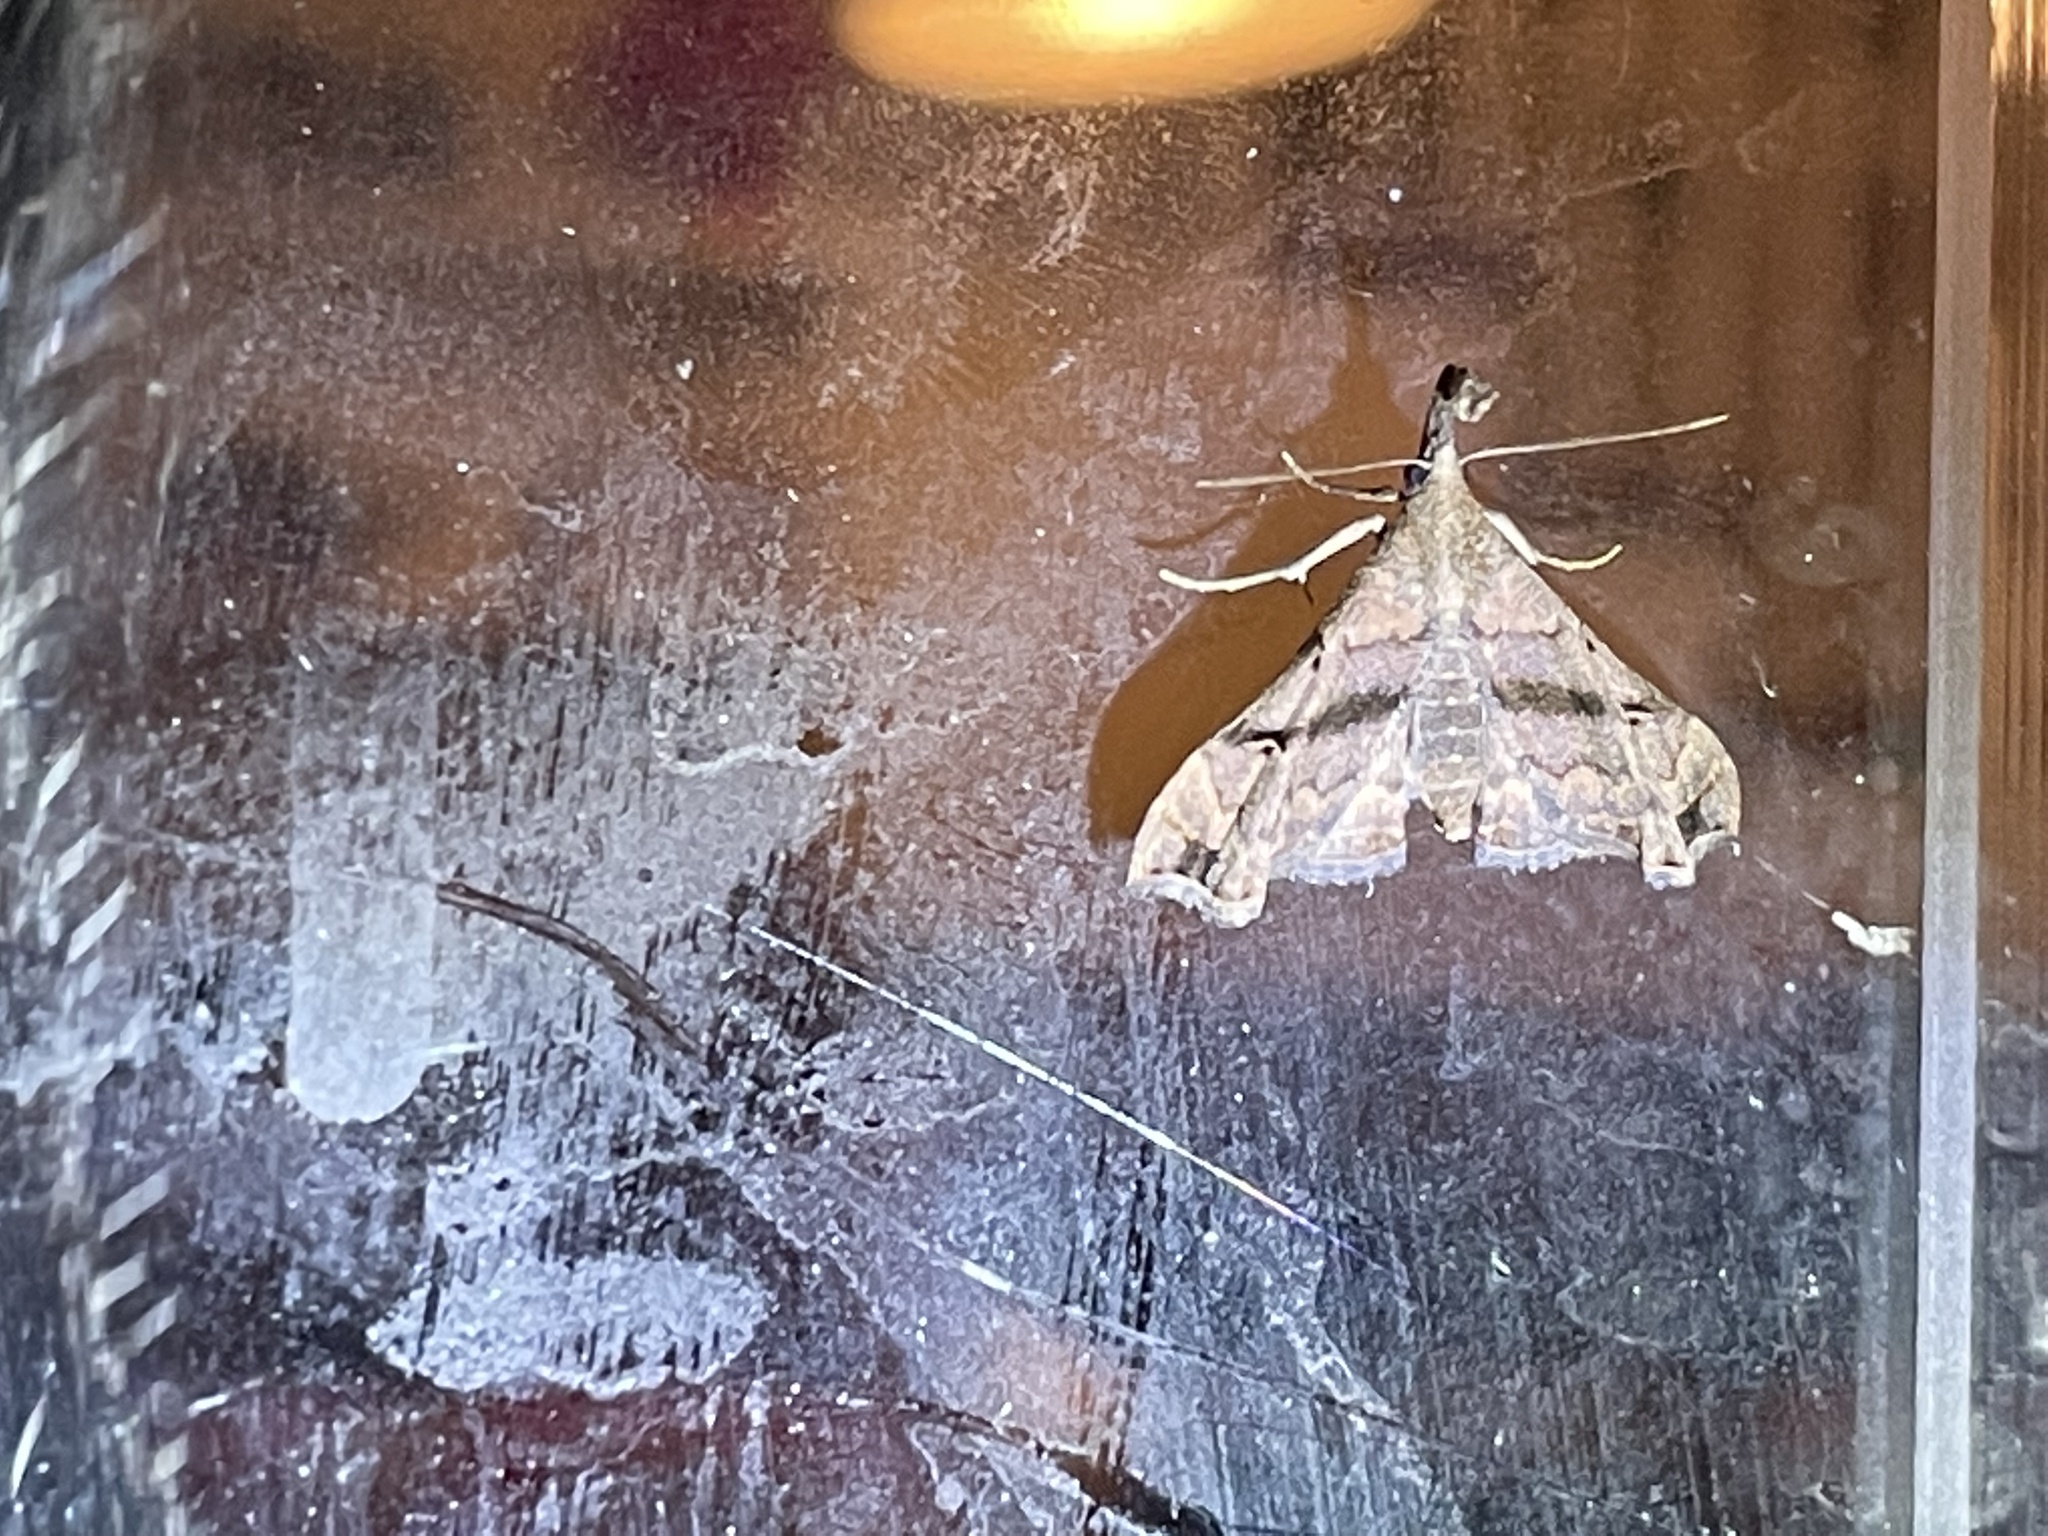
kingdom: Animalia
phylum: Arthropoda
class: Insecta
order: Lepidoptera
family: Erebidae
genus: Palthis
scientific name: Palthis asopialis
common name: Faint-spotted palthis moth
